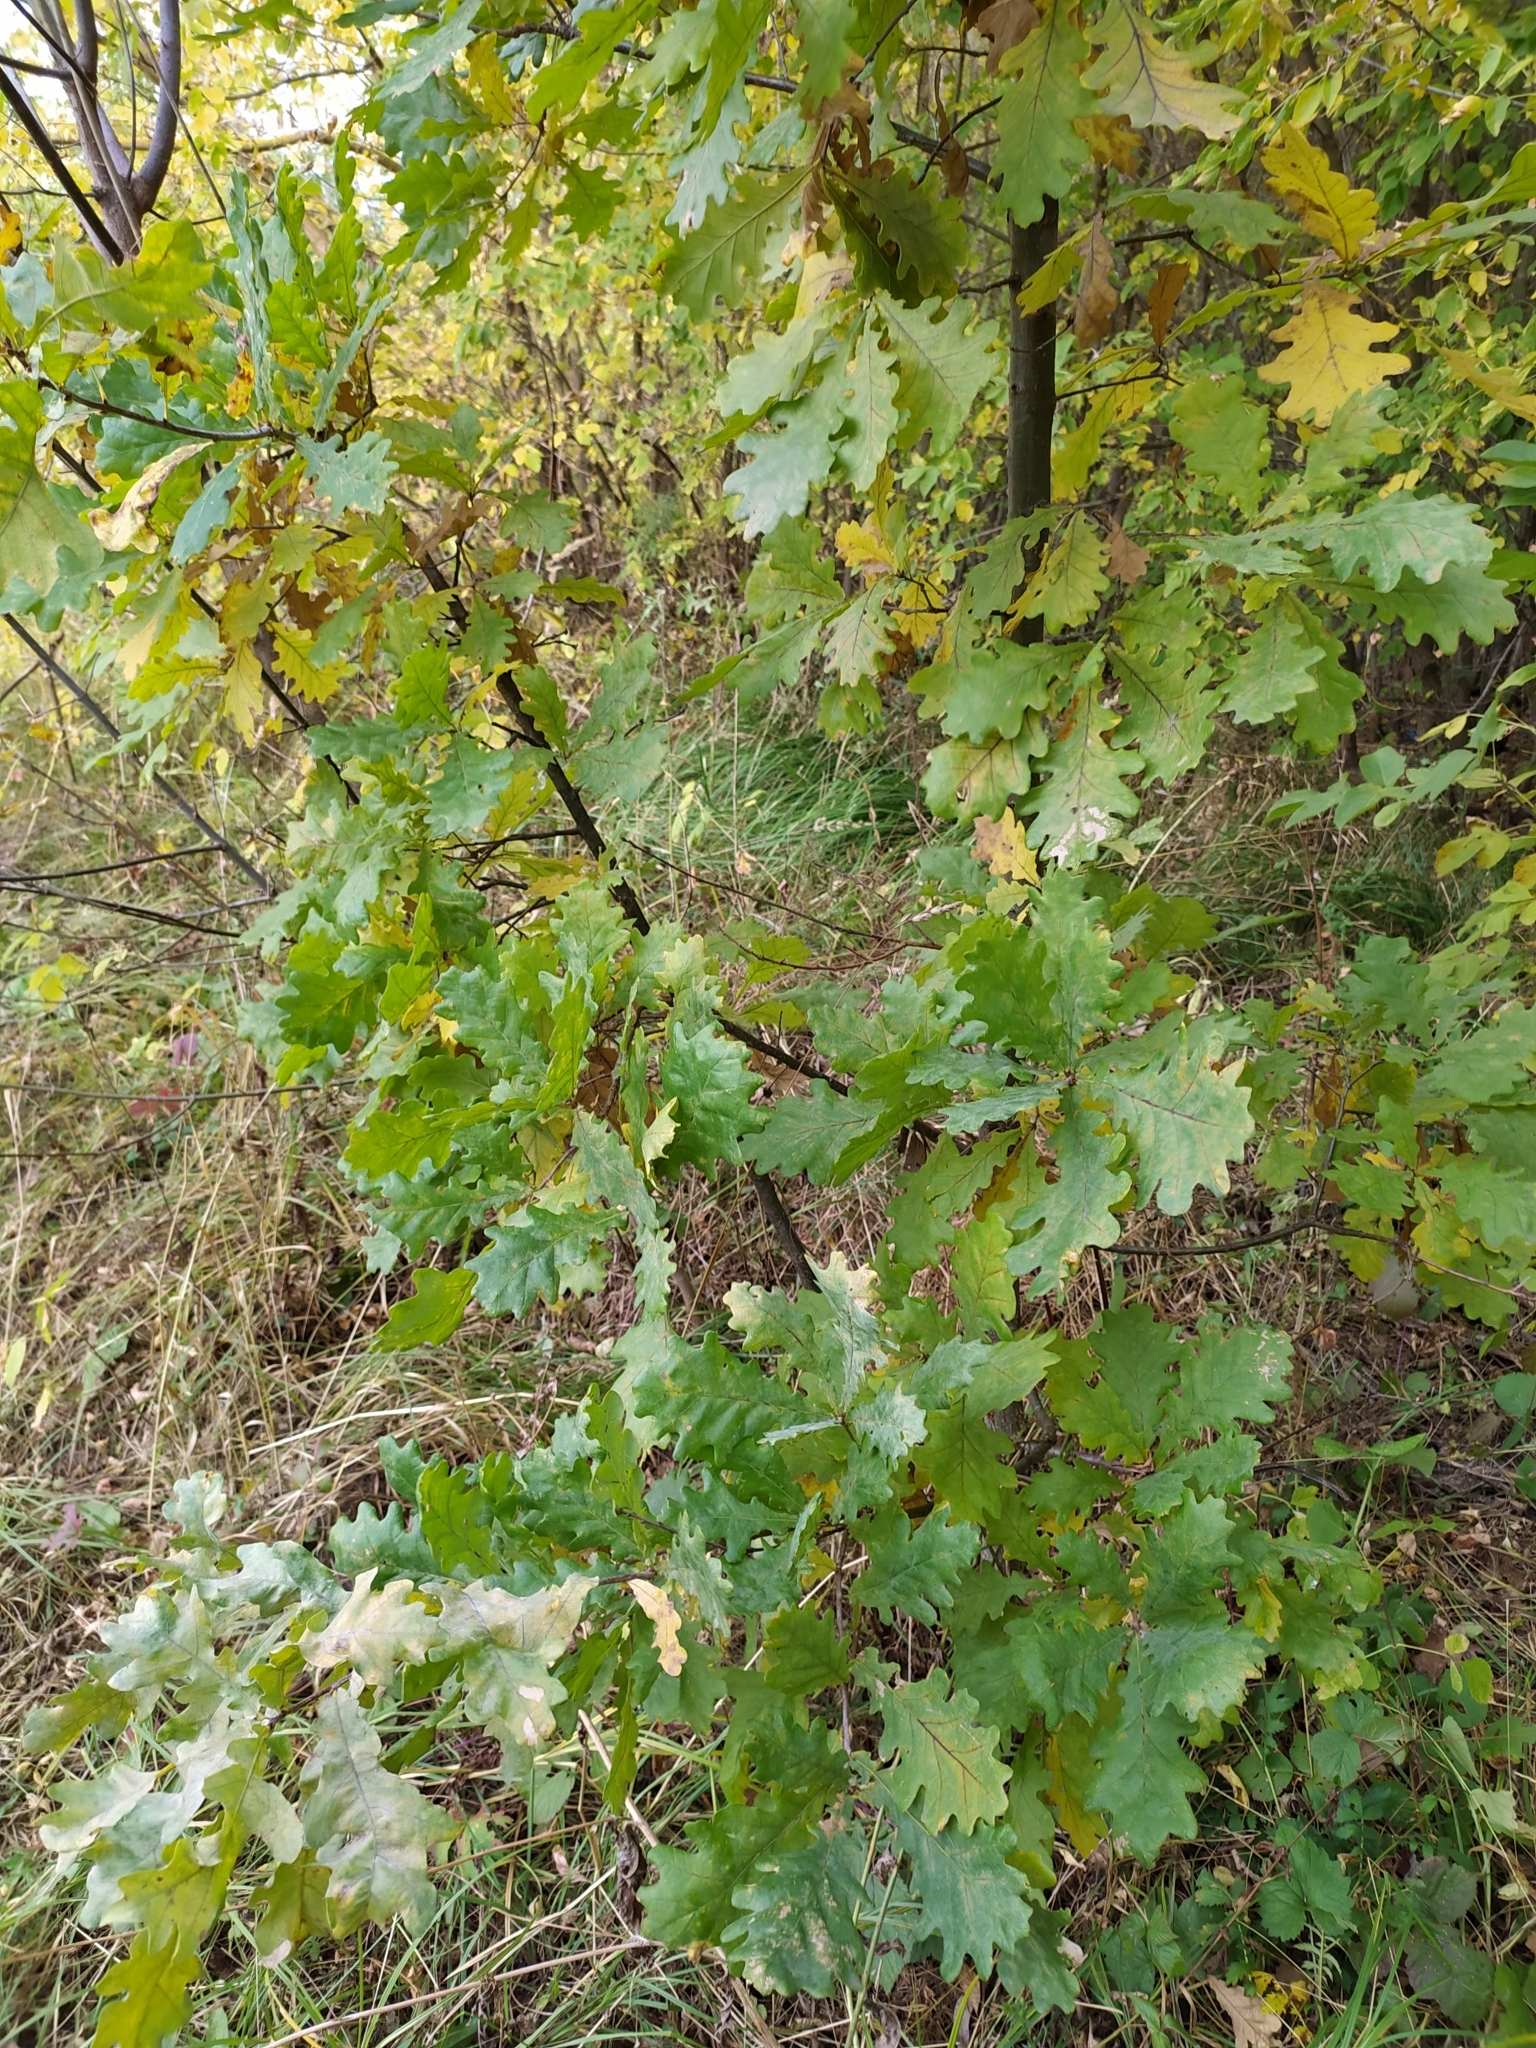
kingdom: Plantae
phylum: Tracheophyta
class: Magnoliopsida
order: Fagales
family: Fagaceae
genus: Quercus
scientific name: Quercus robur
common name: Pedunculate oak
